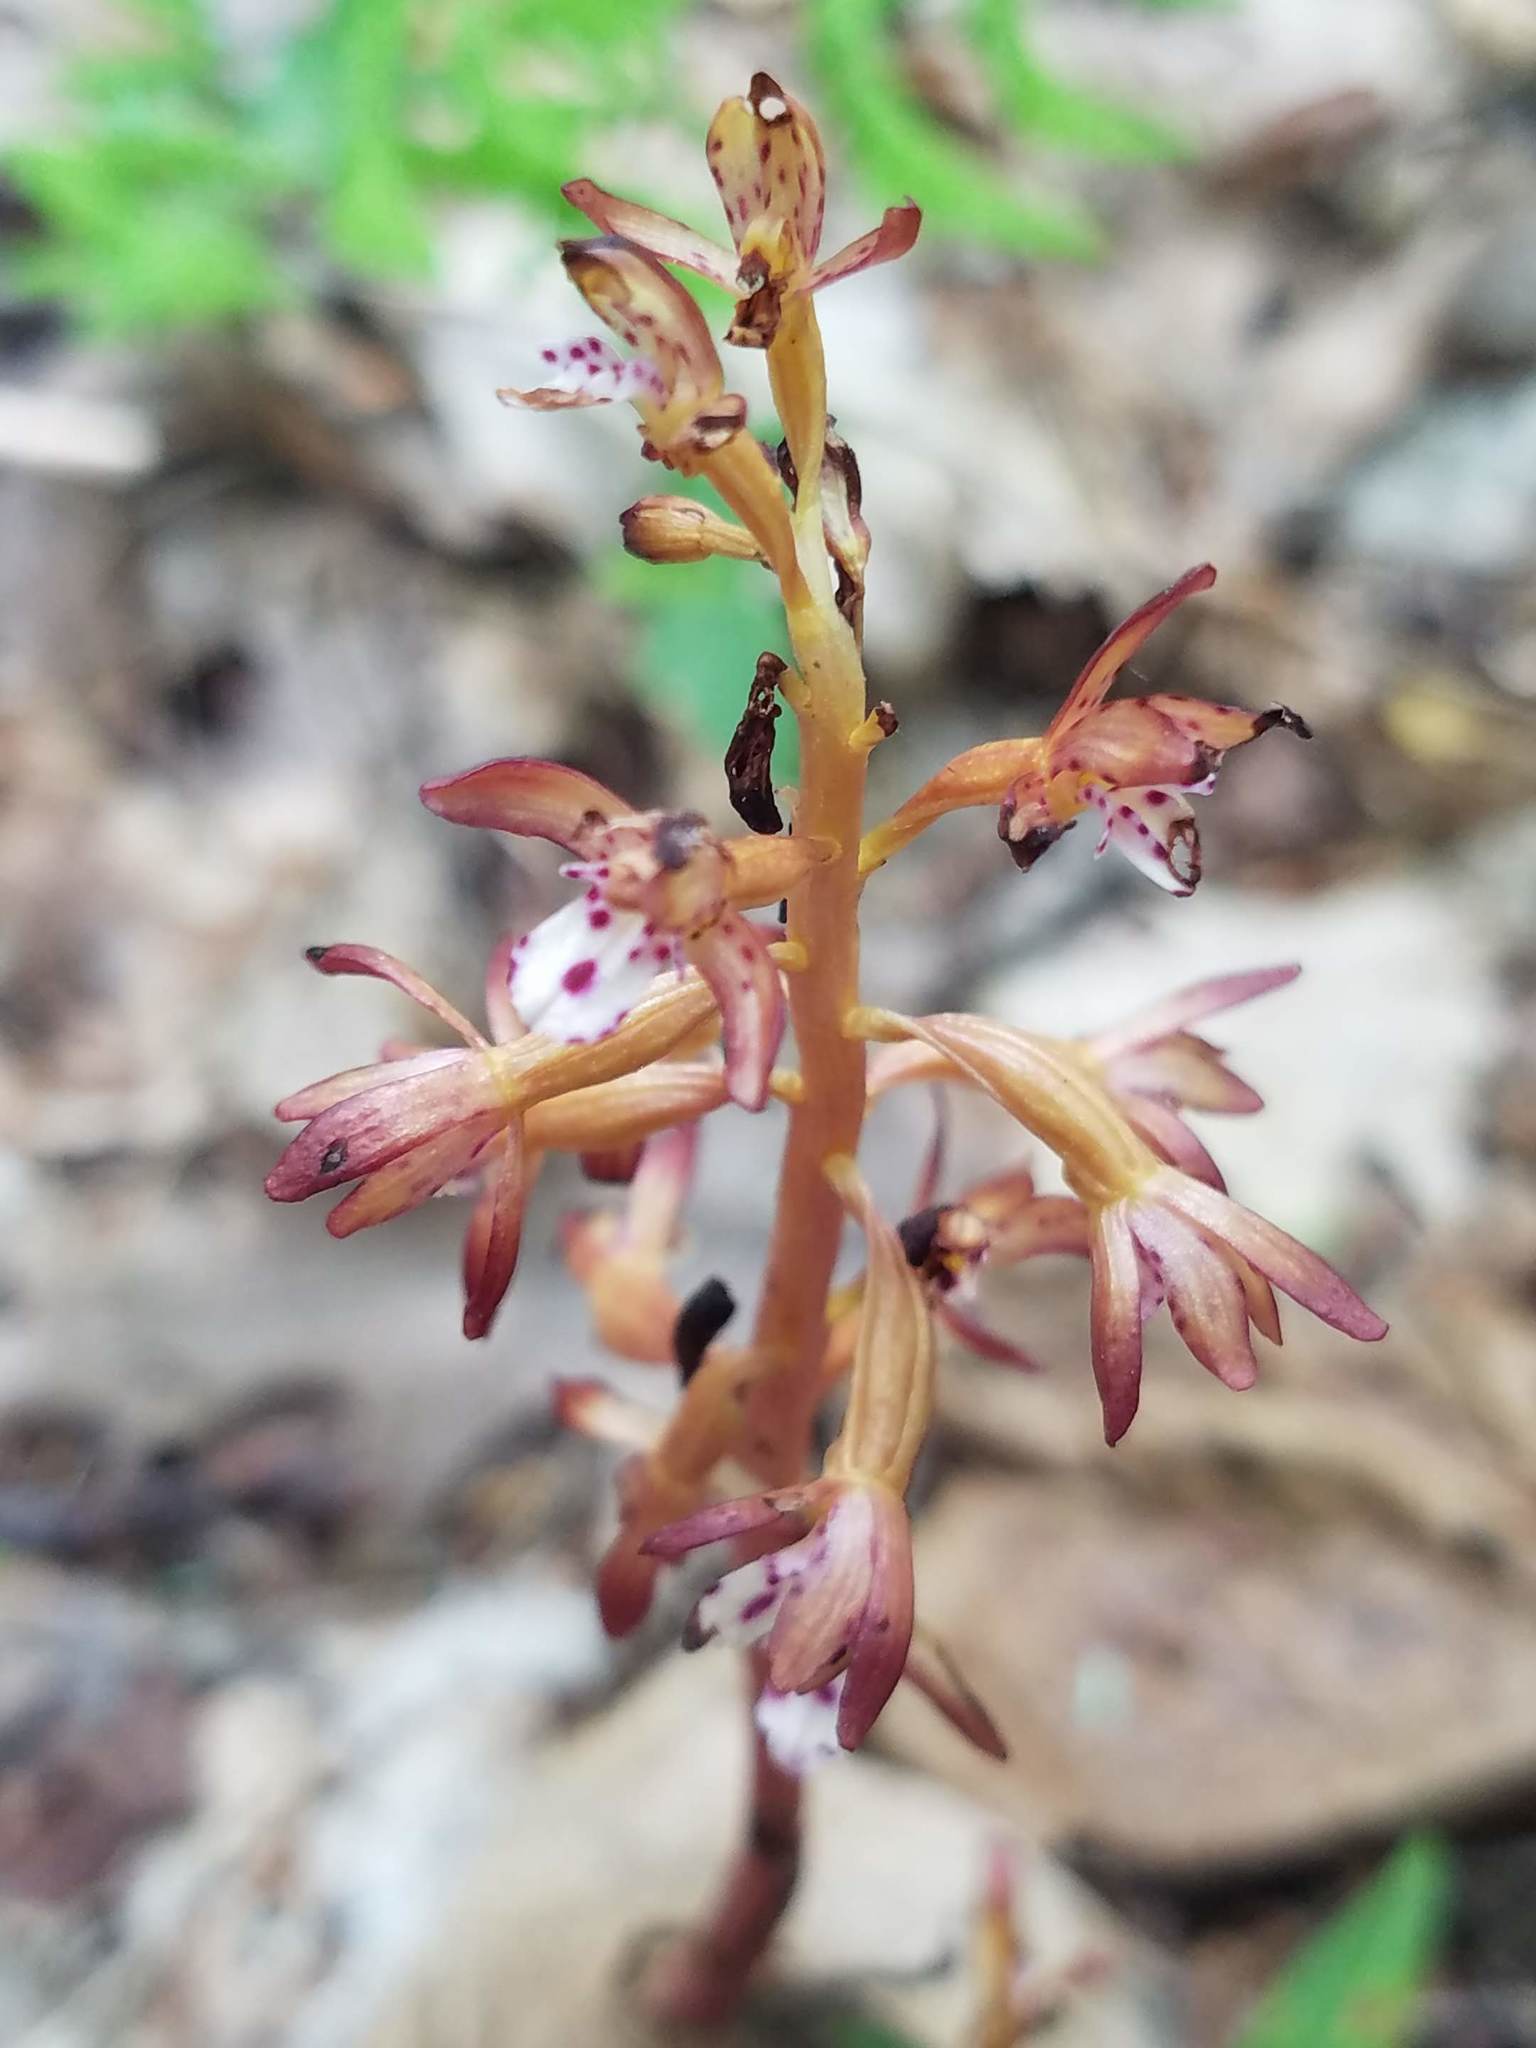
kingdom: Plantae
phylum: Tracheophyta
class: Liliopsida
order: Asparagales
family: Orchidaceae
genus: Corallorhiza
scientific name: Corallorhiza maculata
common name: Spotted coralroot
